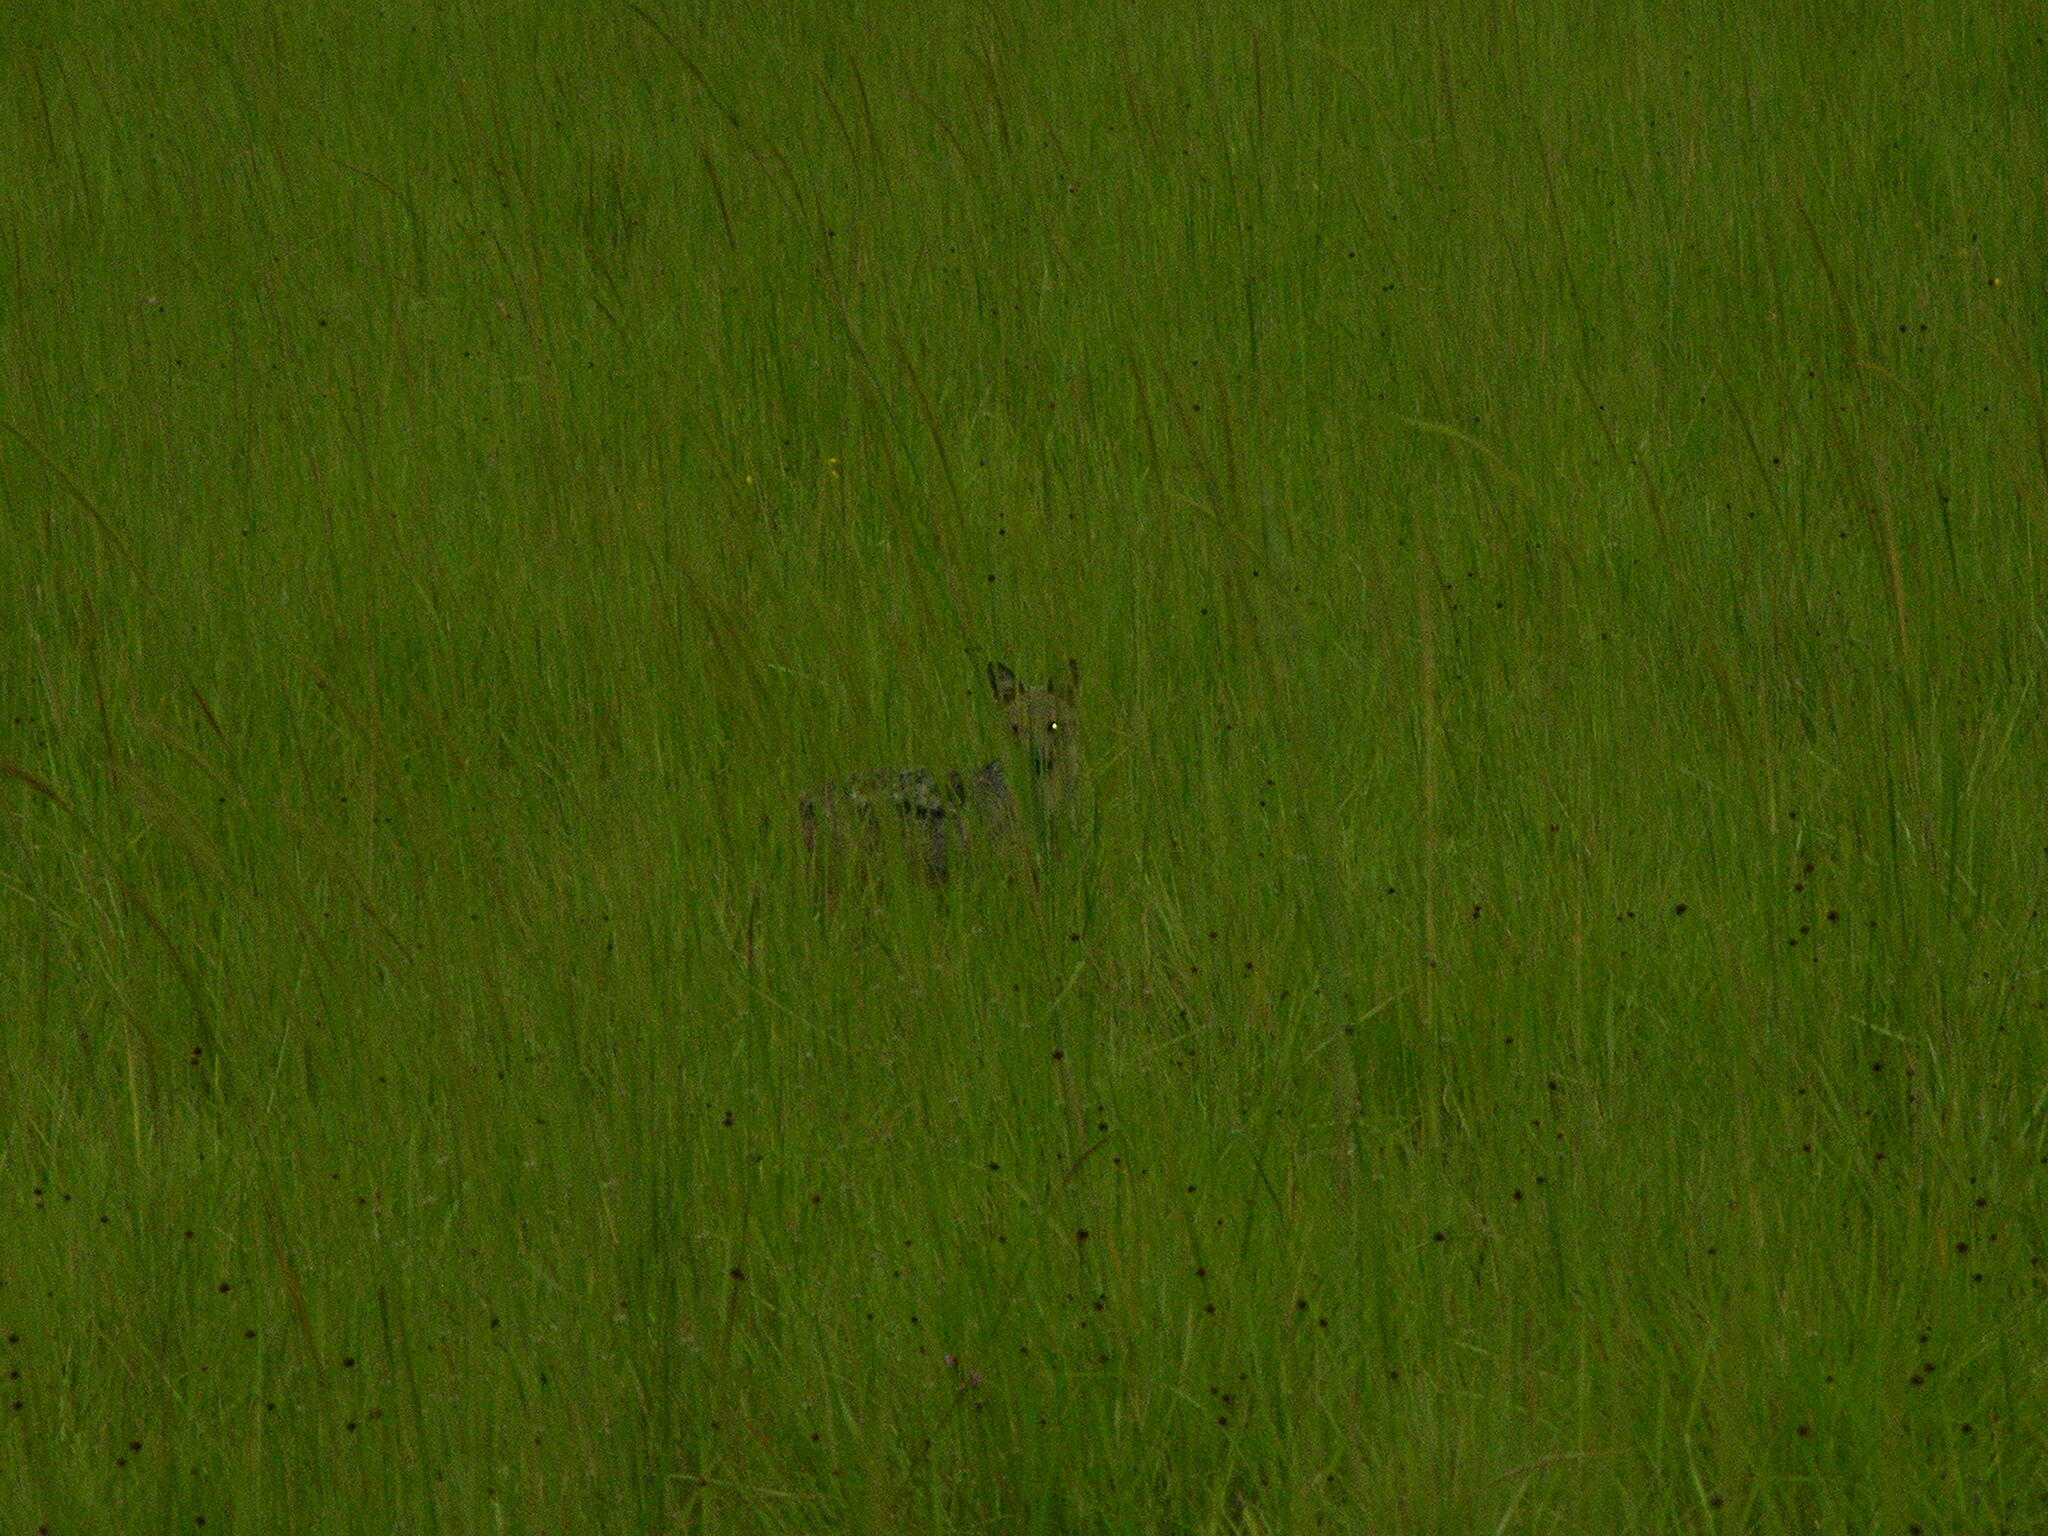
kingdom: Animalia
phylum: Chordata
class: Mammalia
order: Carnivora
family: Canidae
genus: Lupulella
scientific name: Lupulella
